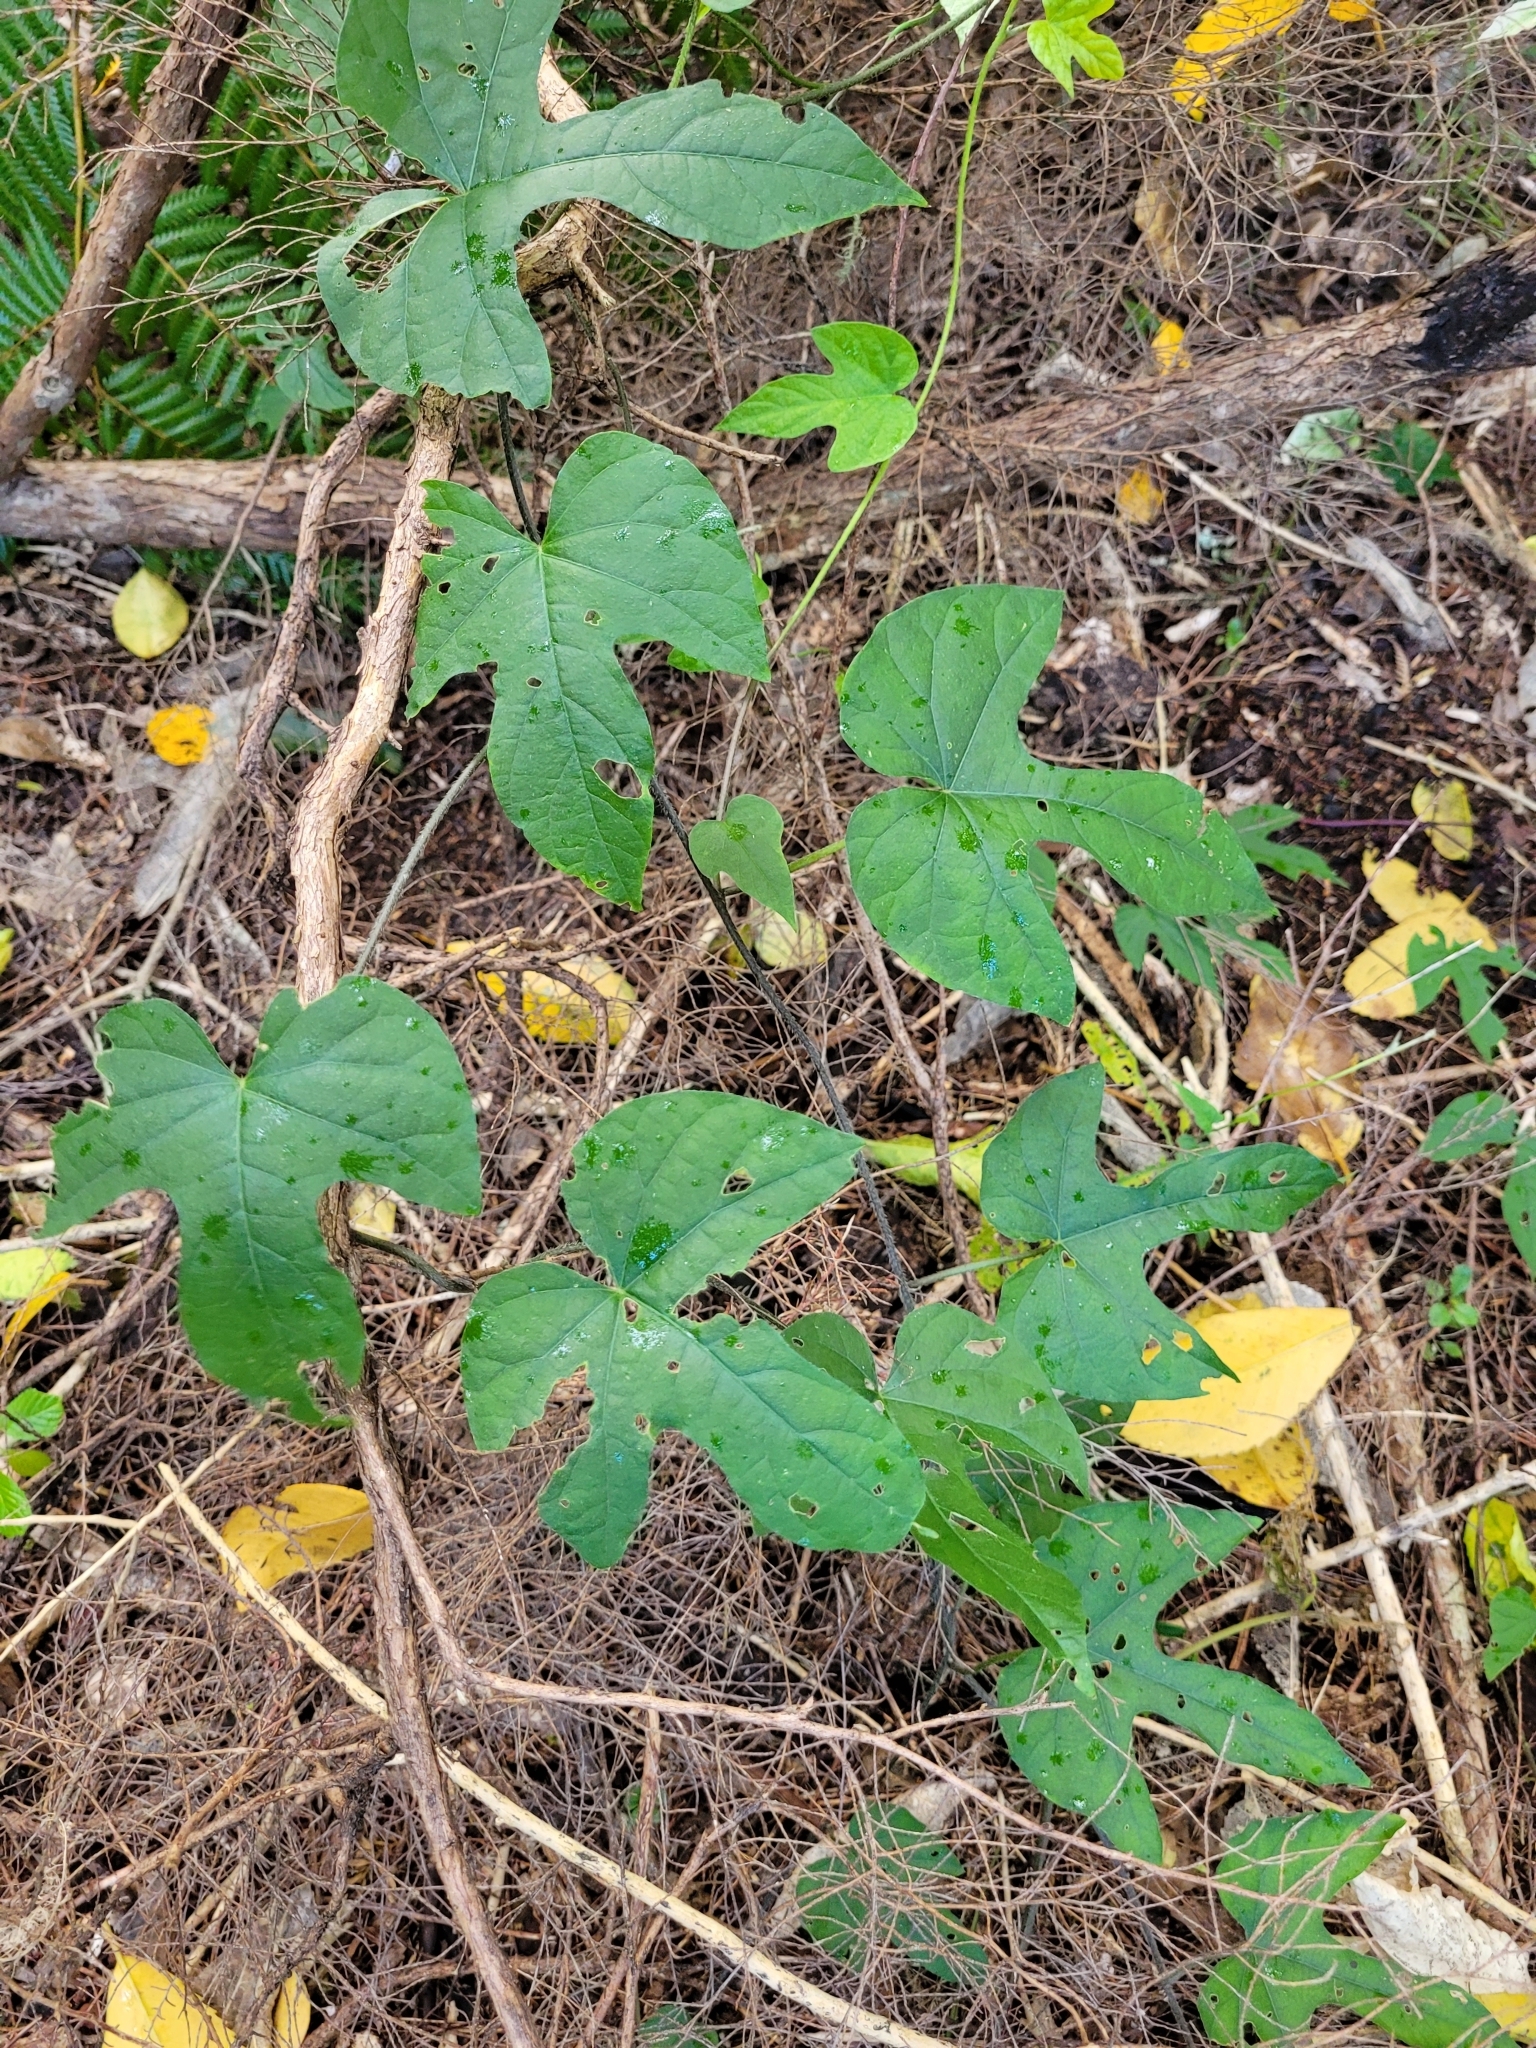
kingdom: Plantae
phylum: Tracheophyta
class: Magnoliopsida
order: Solanales
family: Convolvulaceae
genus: Ipomoea
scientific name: Ipomoea indica
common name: Blue dawnflower
